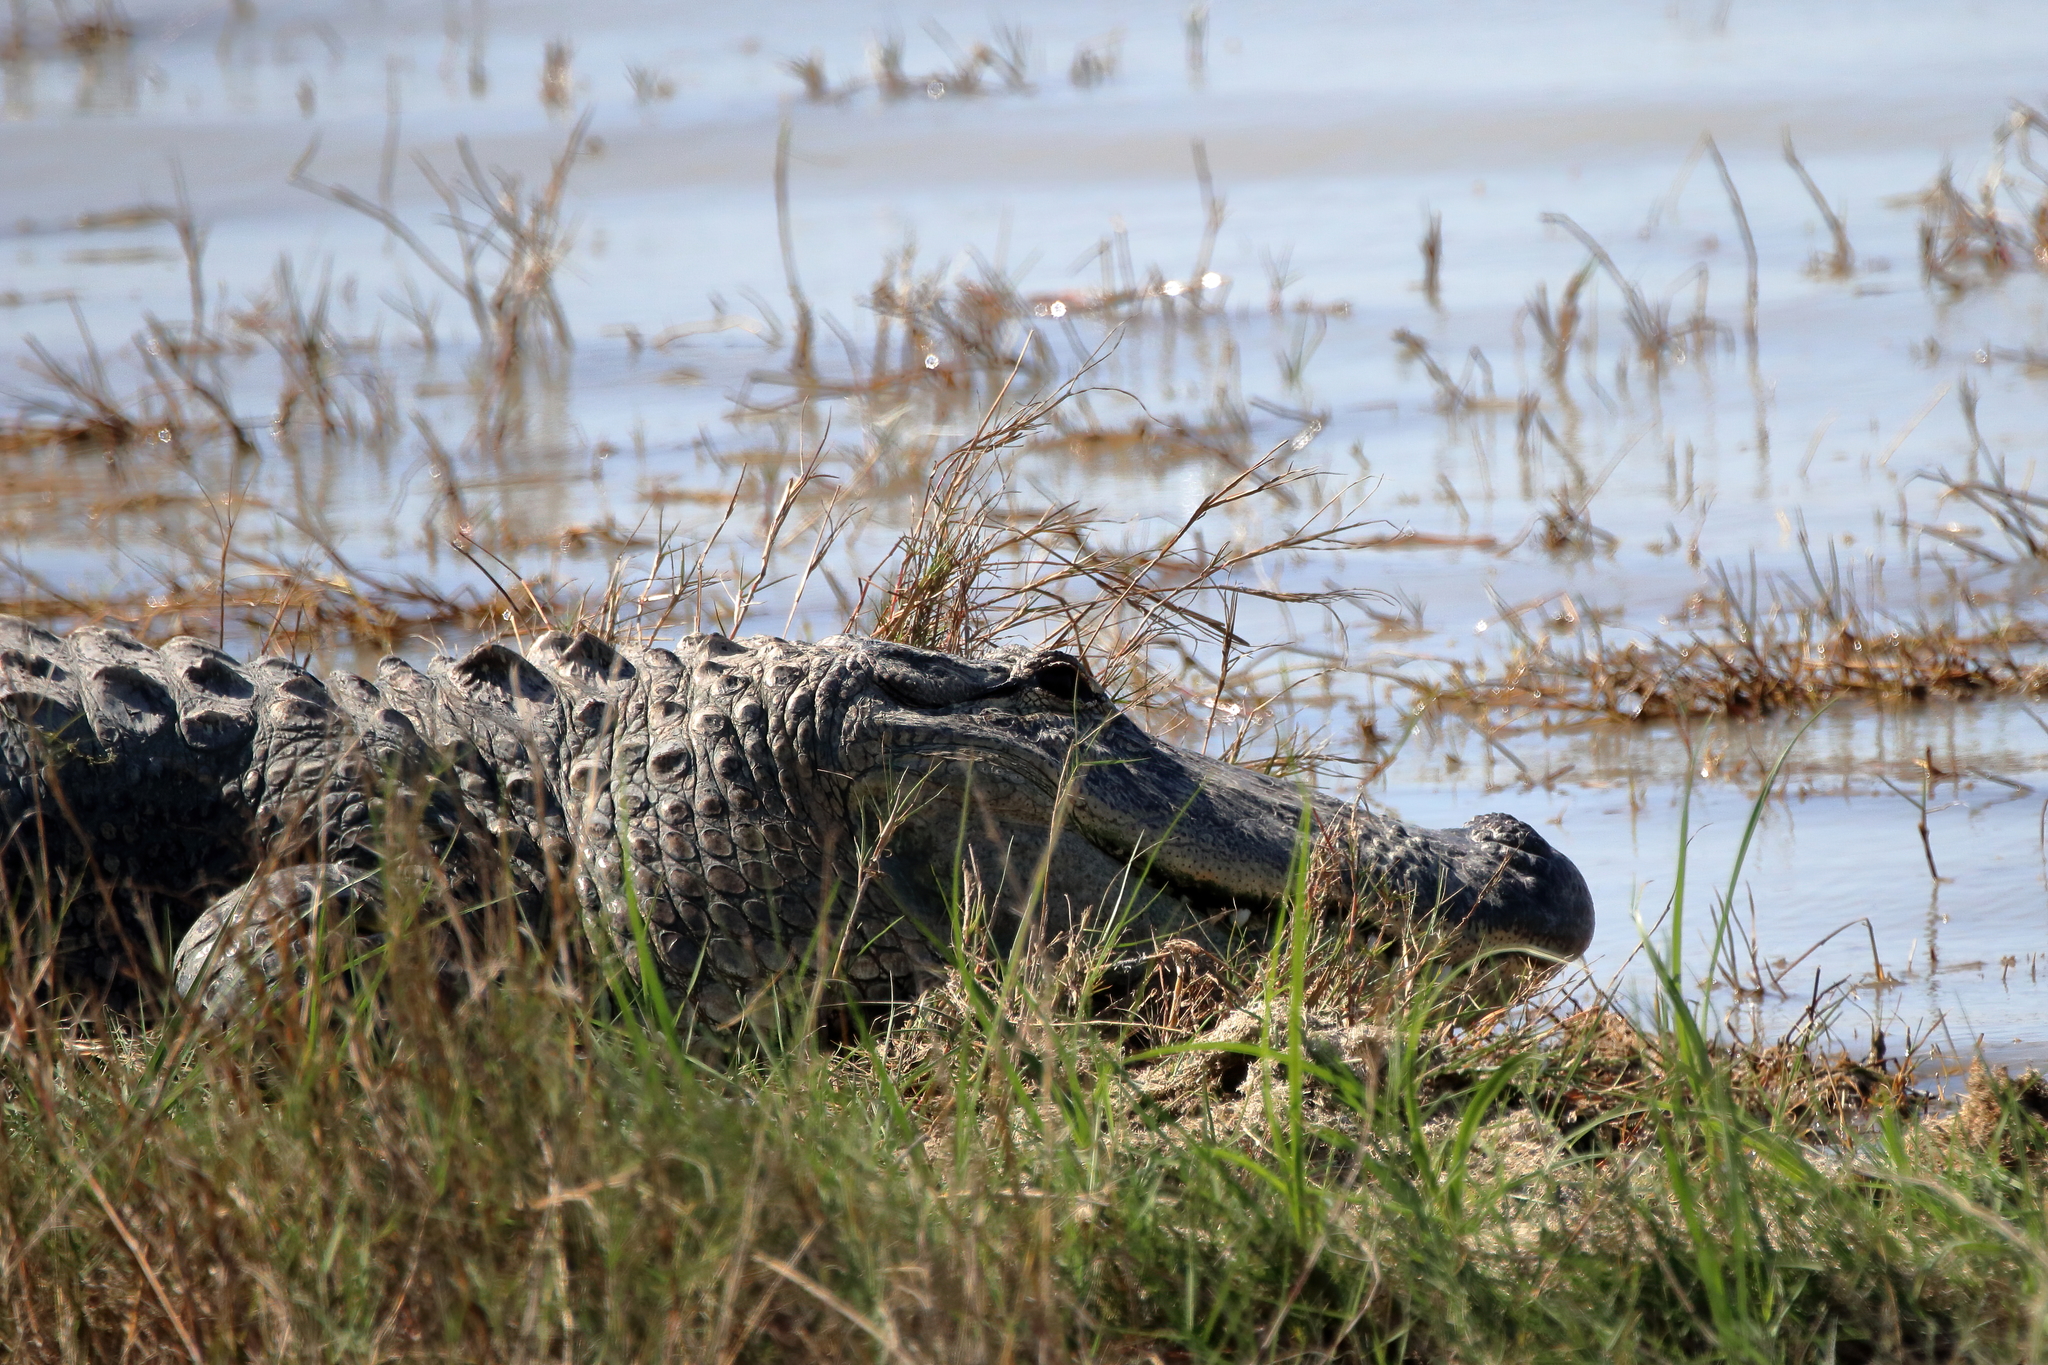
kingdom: Animalia
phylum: Chordata
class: Crocodylia
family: Alligatoridae
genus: Alligator
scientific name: Alligator mississippiensis
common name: American alligator
